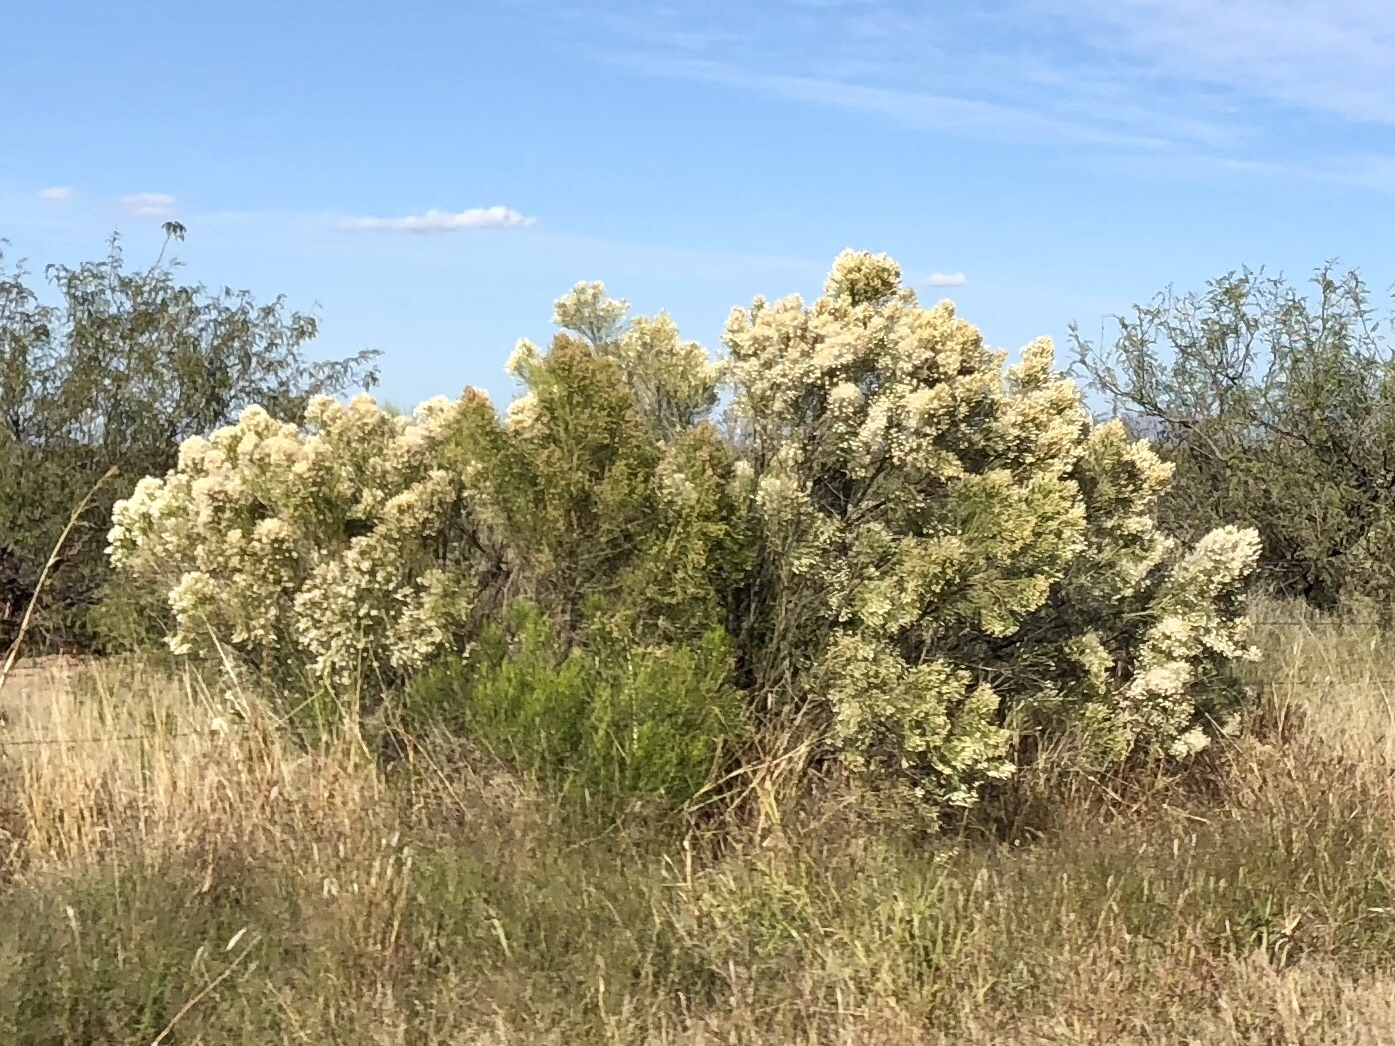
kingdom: Plantae
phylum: Tracheophyta
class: Magnoliopsida
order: Asterales
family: Asteraceae
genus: Baccharis
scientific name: Baccharis sarothroides
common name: Desert-broom
